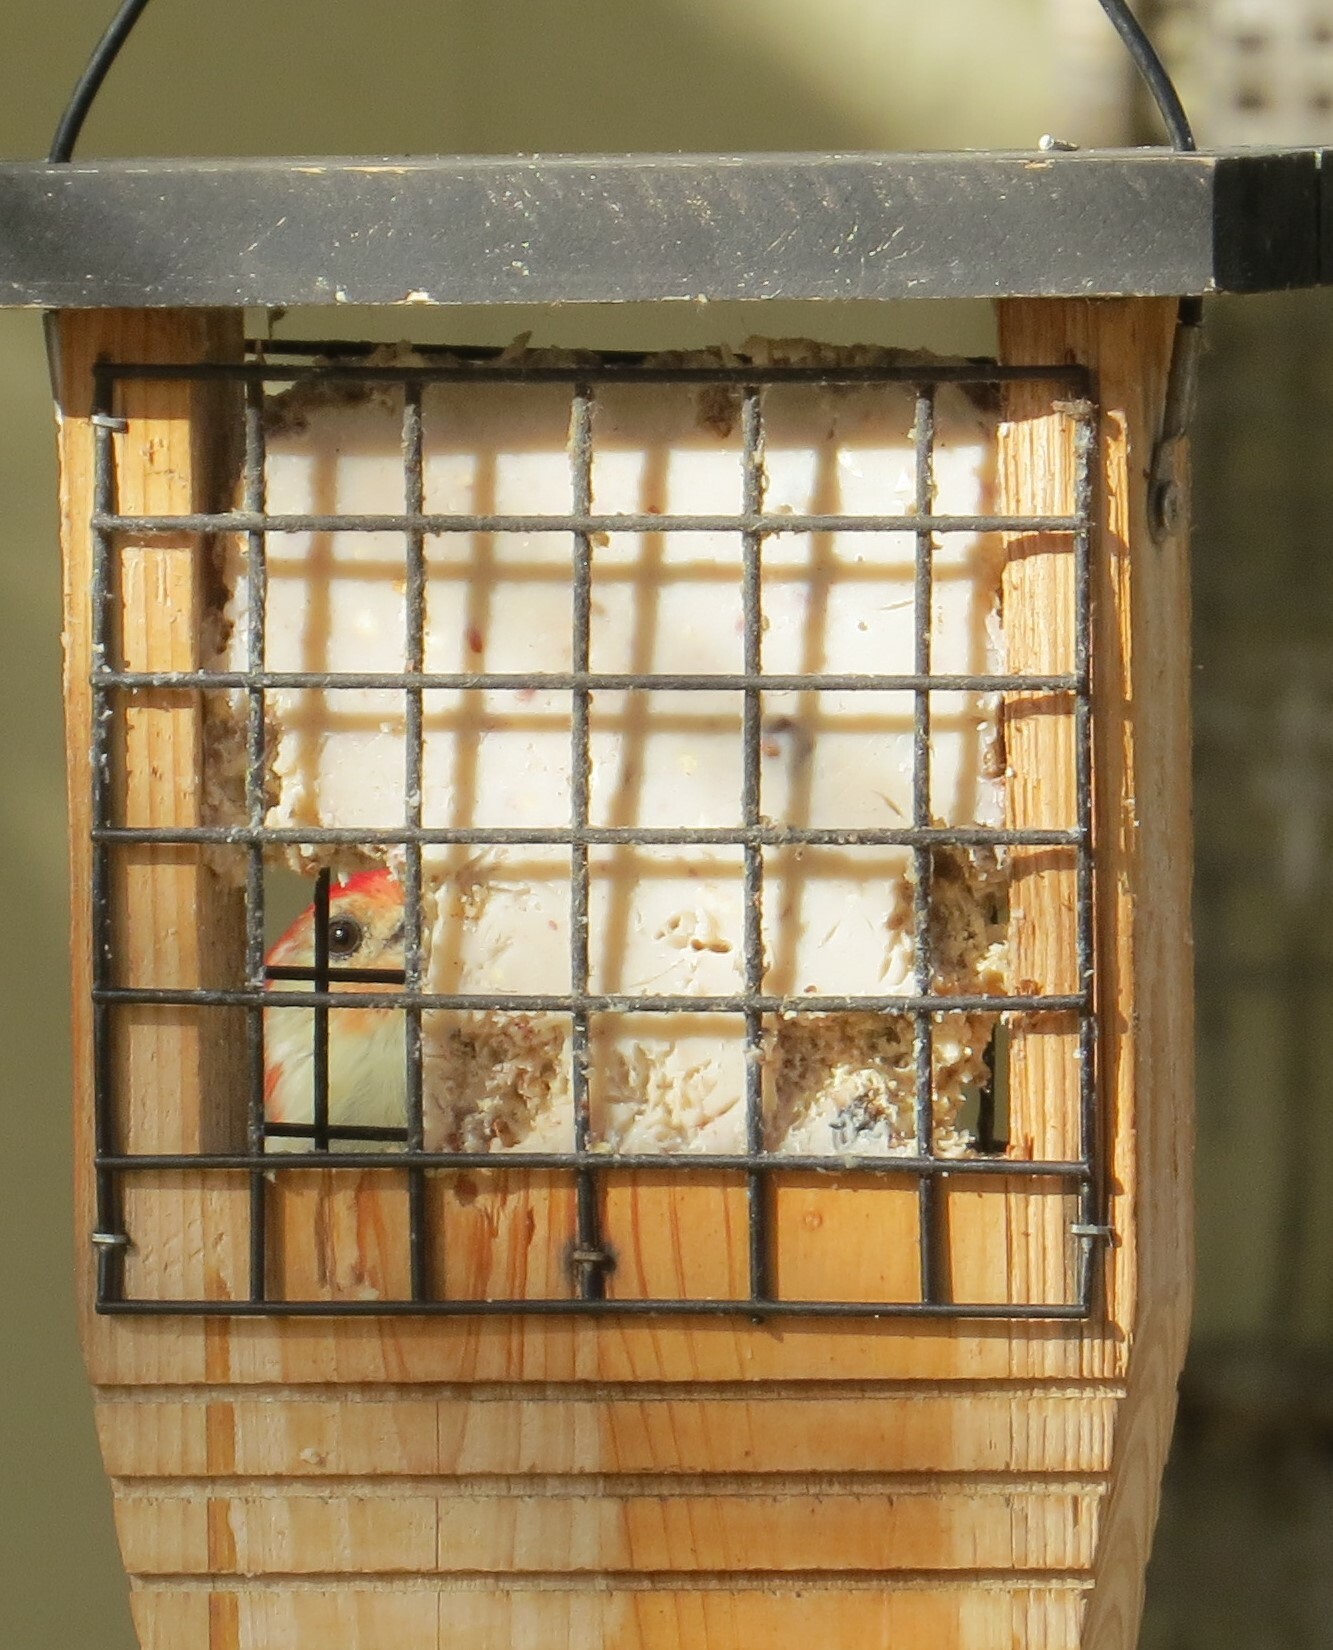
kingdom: Animalia
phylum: Chordata
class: Aves
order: Piciformes
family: Picidae
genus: Melanerpes
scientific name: Melanerpes carolinus
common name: Red-bellied woodpecker
